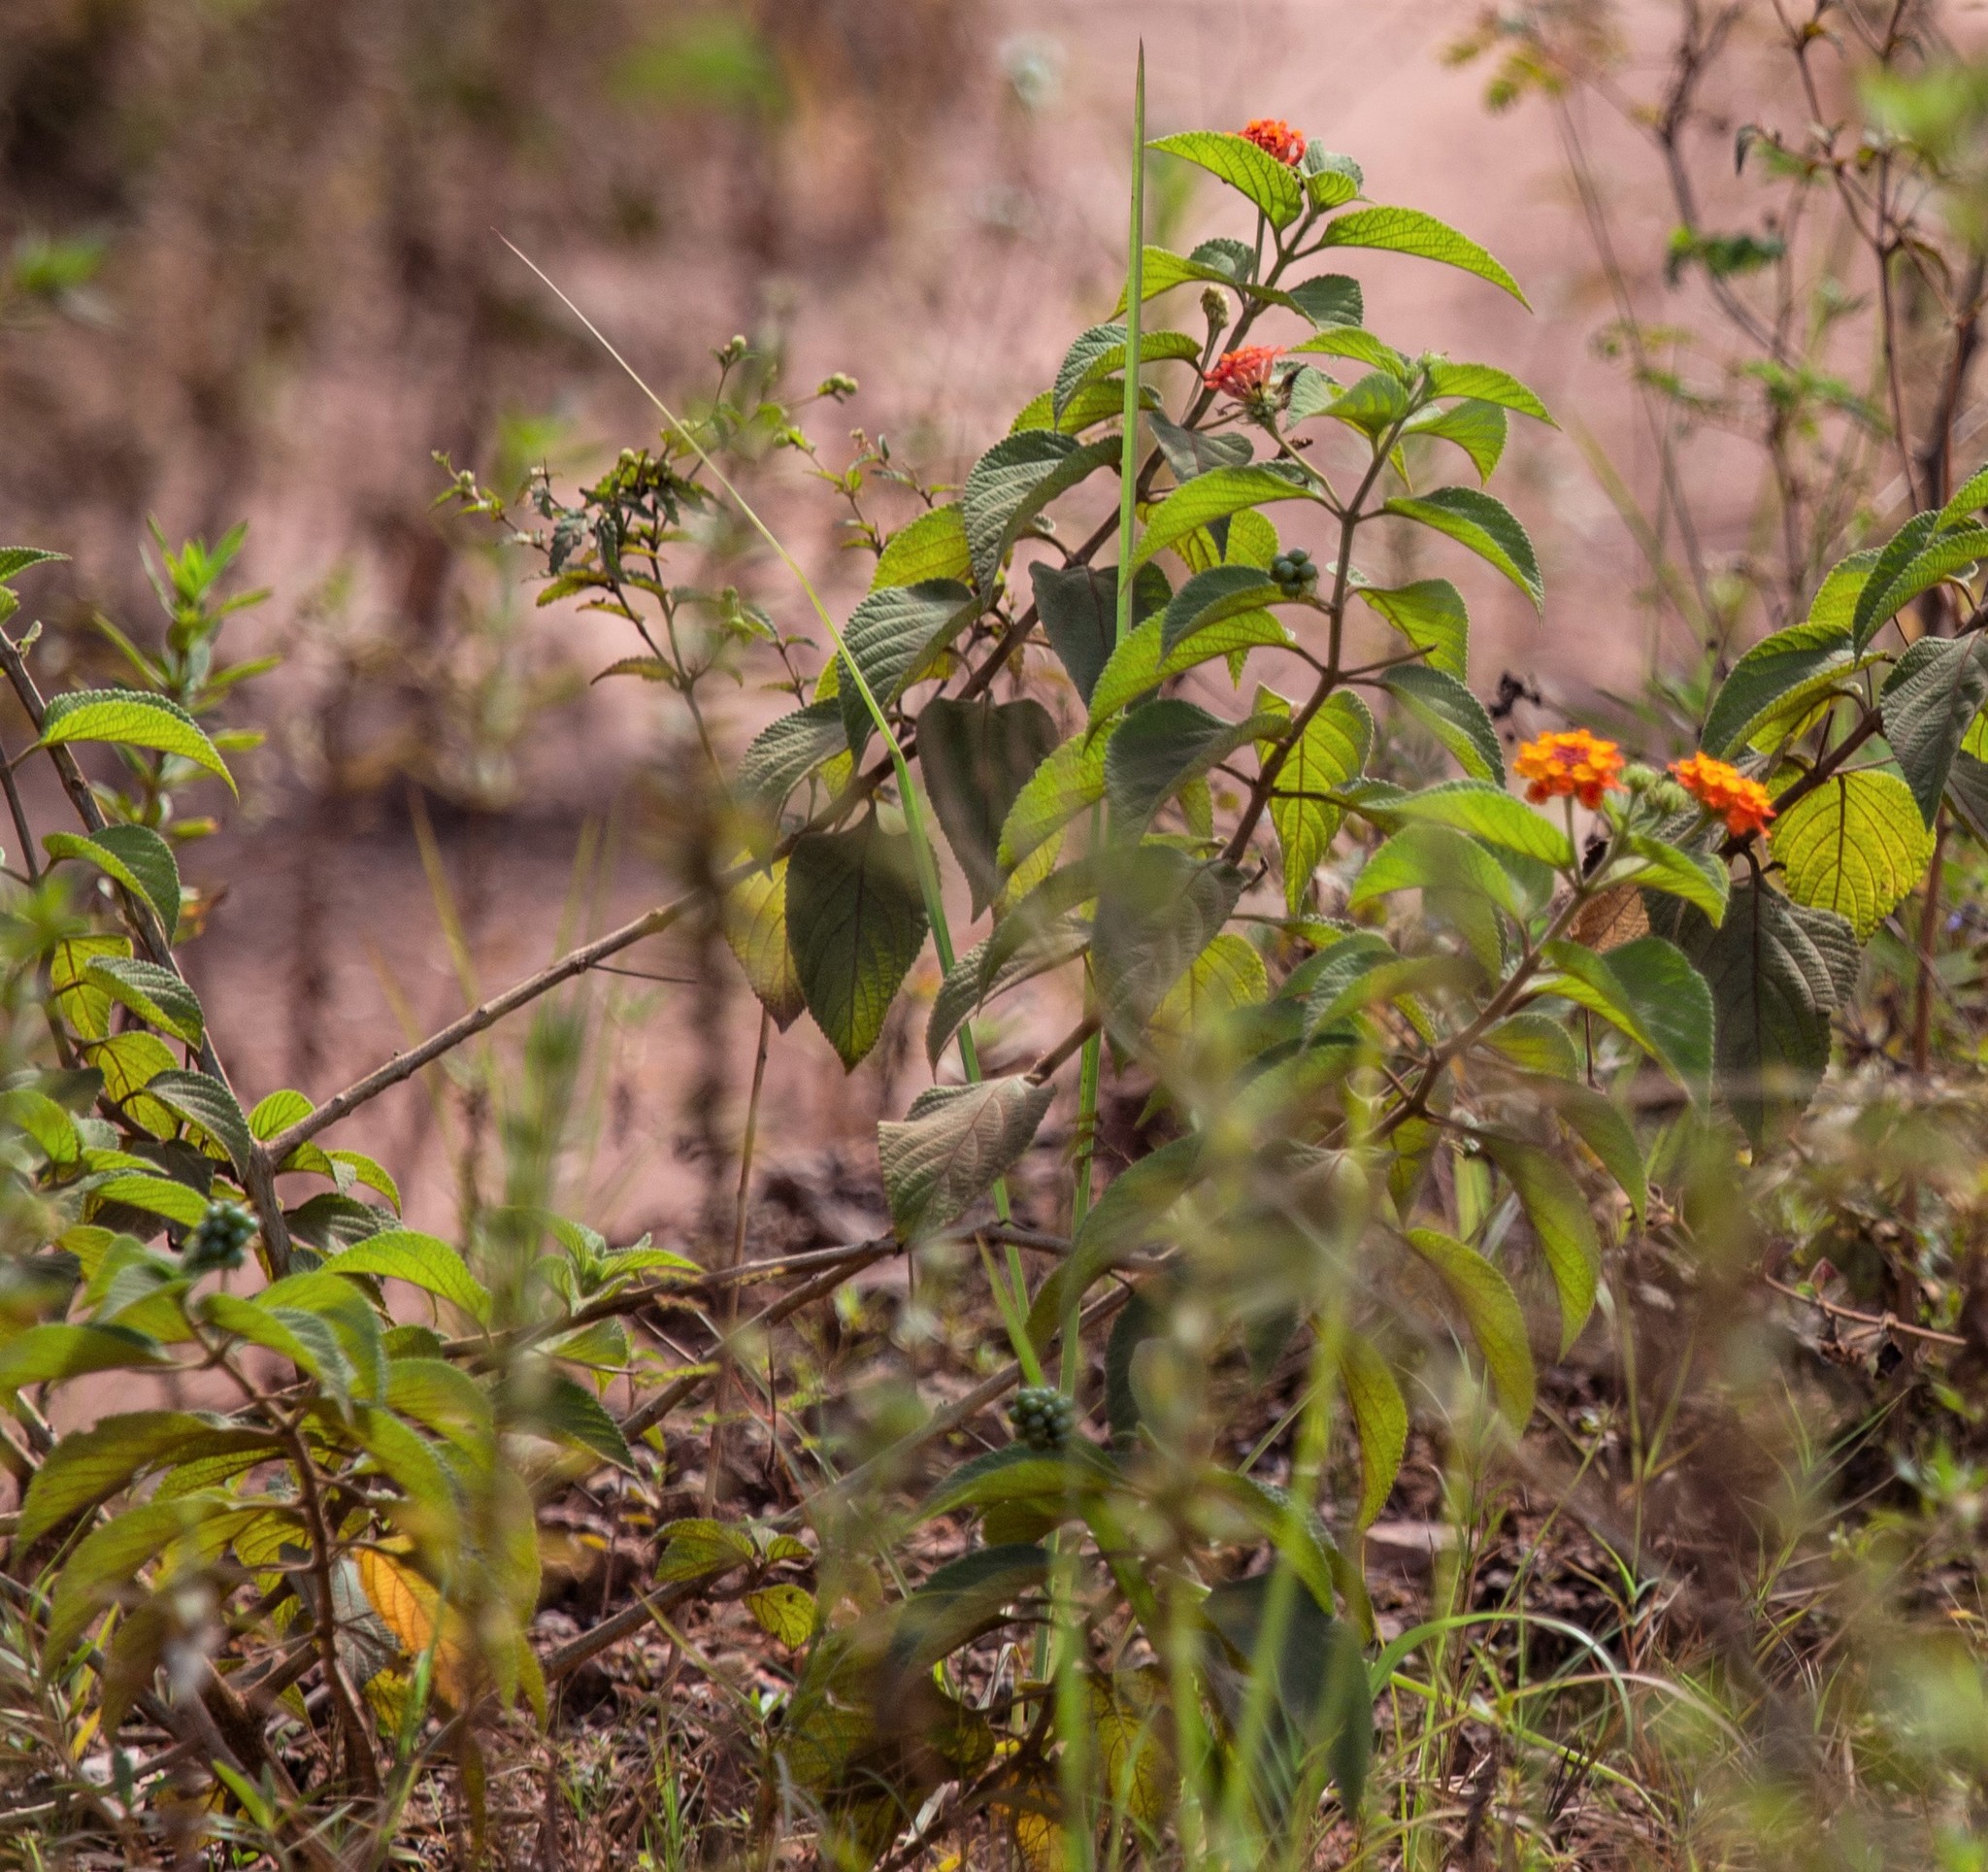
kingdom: Plantae
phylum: Tracheophyta
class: Magnoliopsida
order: Lamiales
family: Verbenaceae
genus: Lantana
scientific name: Lantana horrida
